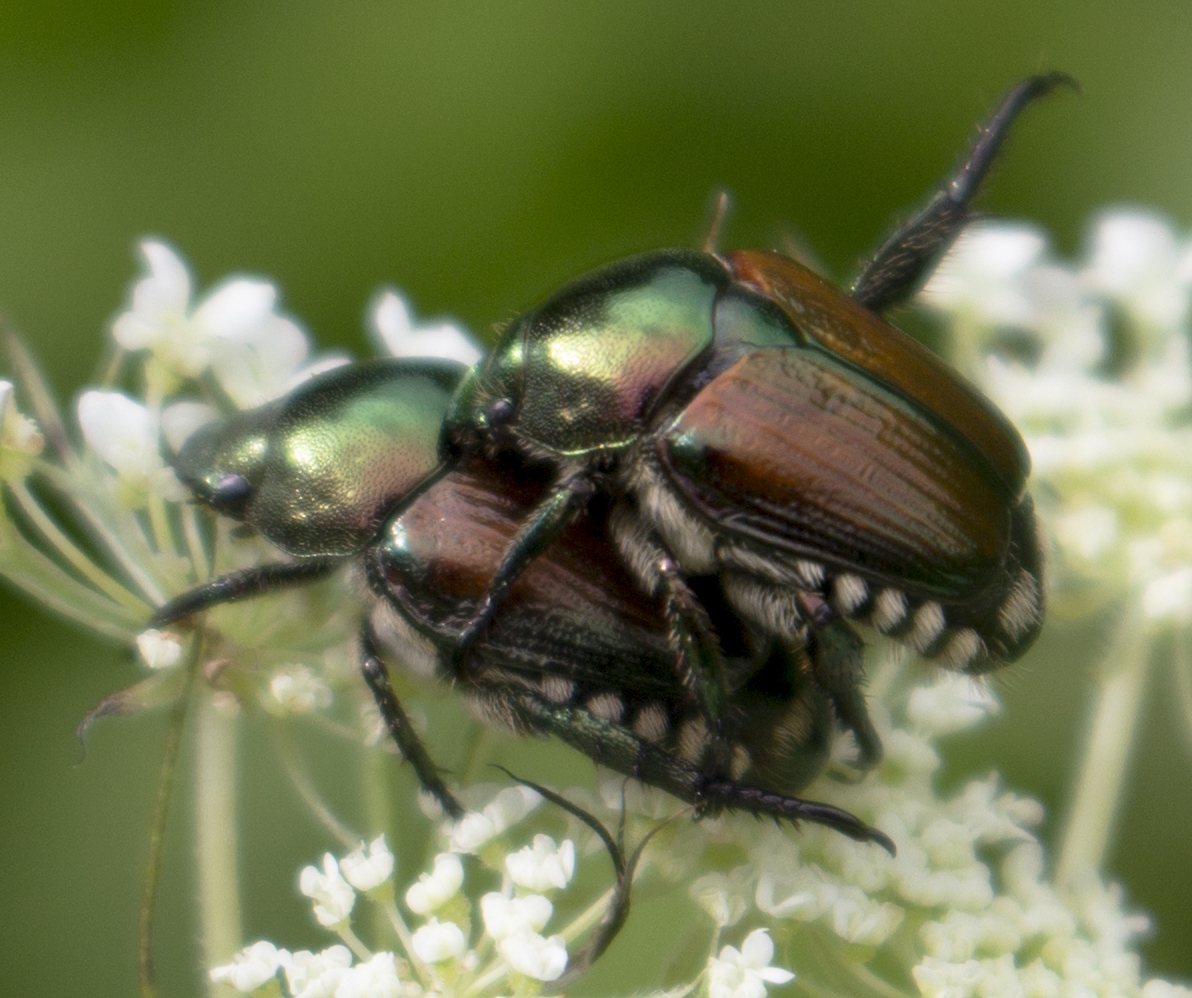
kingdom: Animalia
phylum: Arthropoda
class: Insecta
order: Coleoptera
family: Scarabaeidae
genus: Popillia
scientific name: Popillia japonica
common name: Japanese beetle
